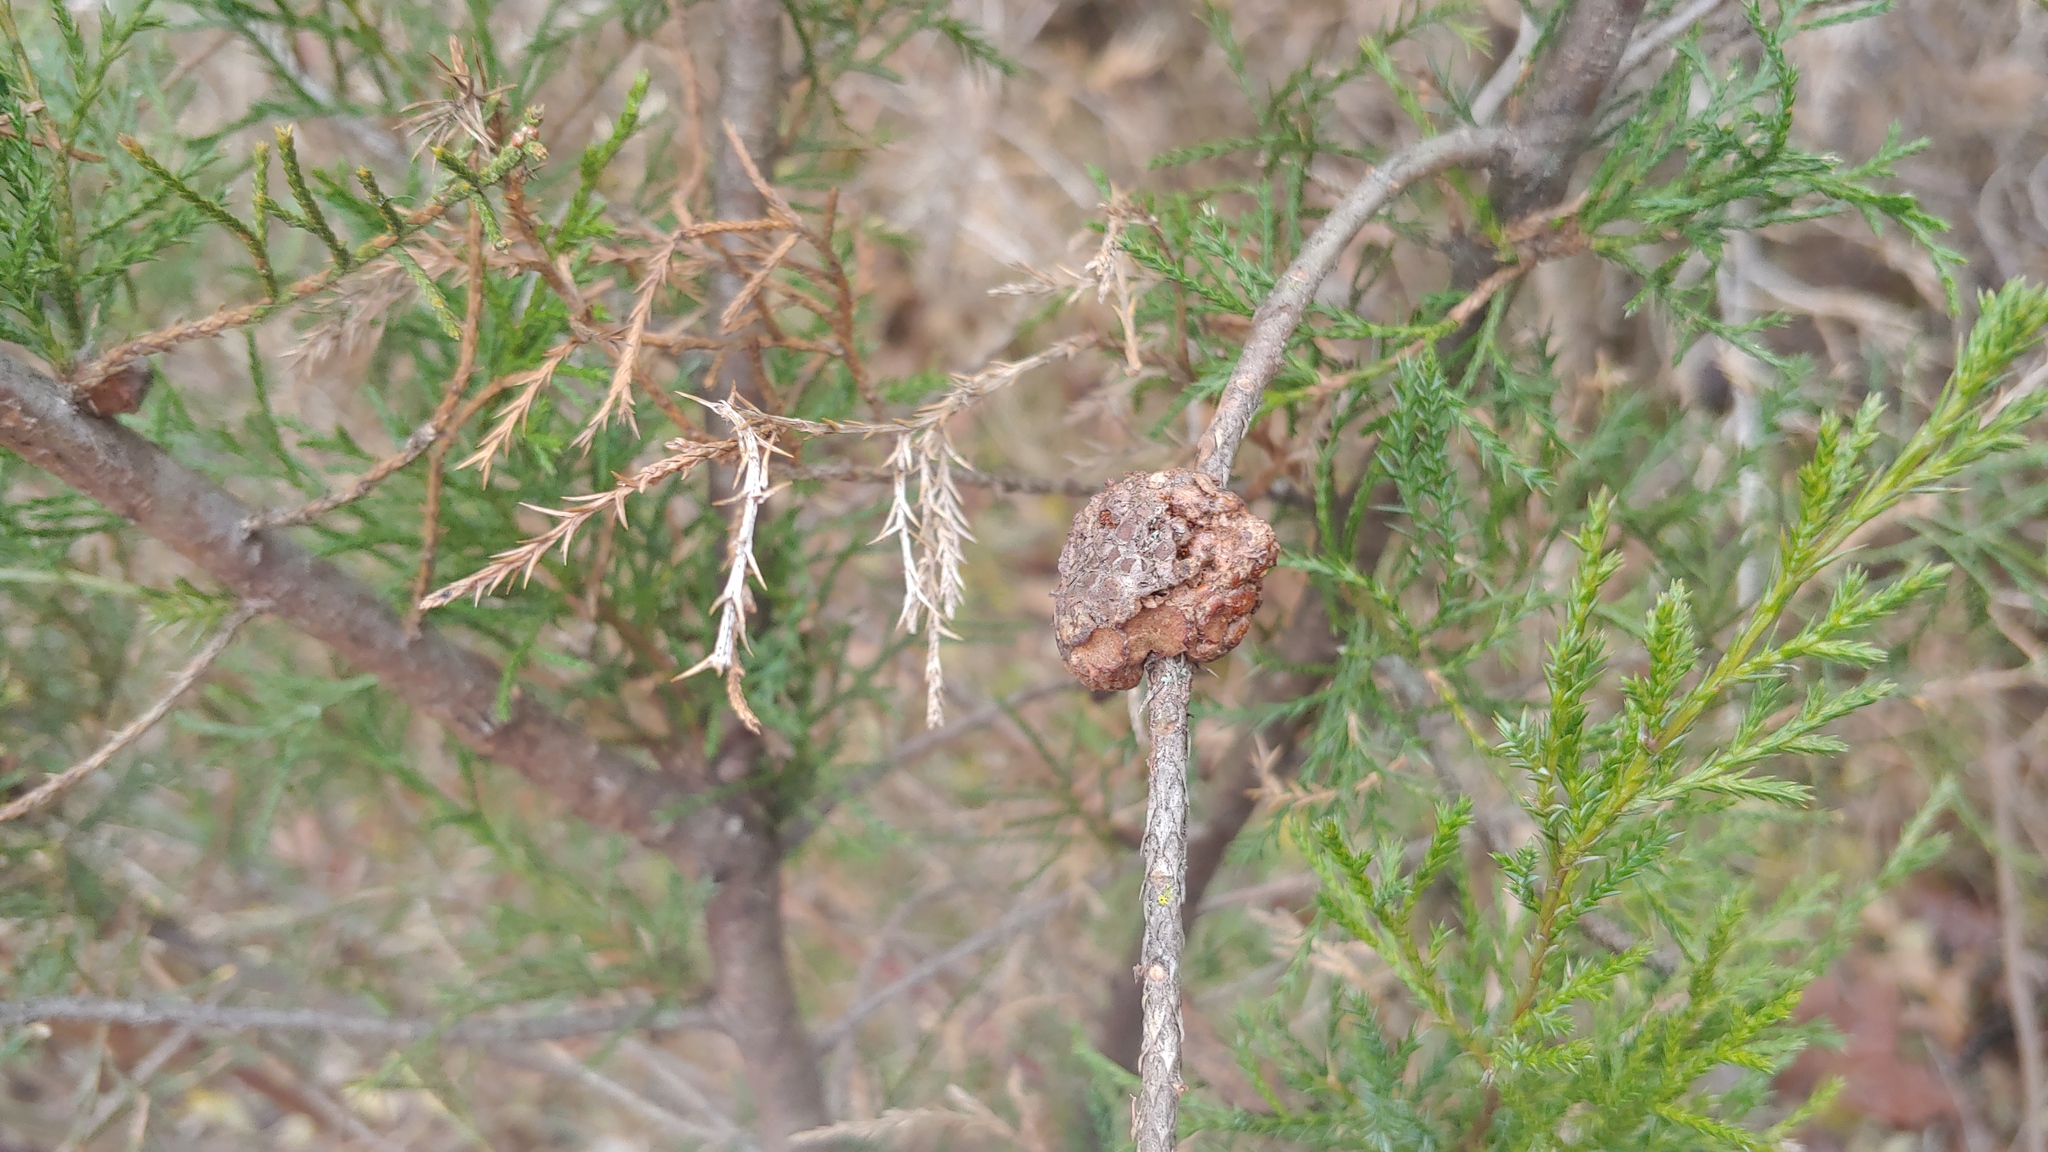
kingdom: Fungi
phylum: Basidiomycota
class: Pucciniomycetes
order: Pucciniales
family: Gymnosporangiaceae
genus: Gymnosporangium
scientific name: Gymnosporangium juniperi-virginianae
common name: Juniper-apple rust
